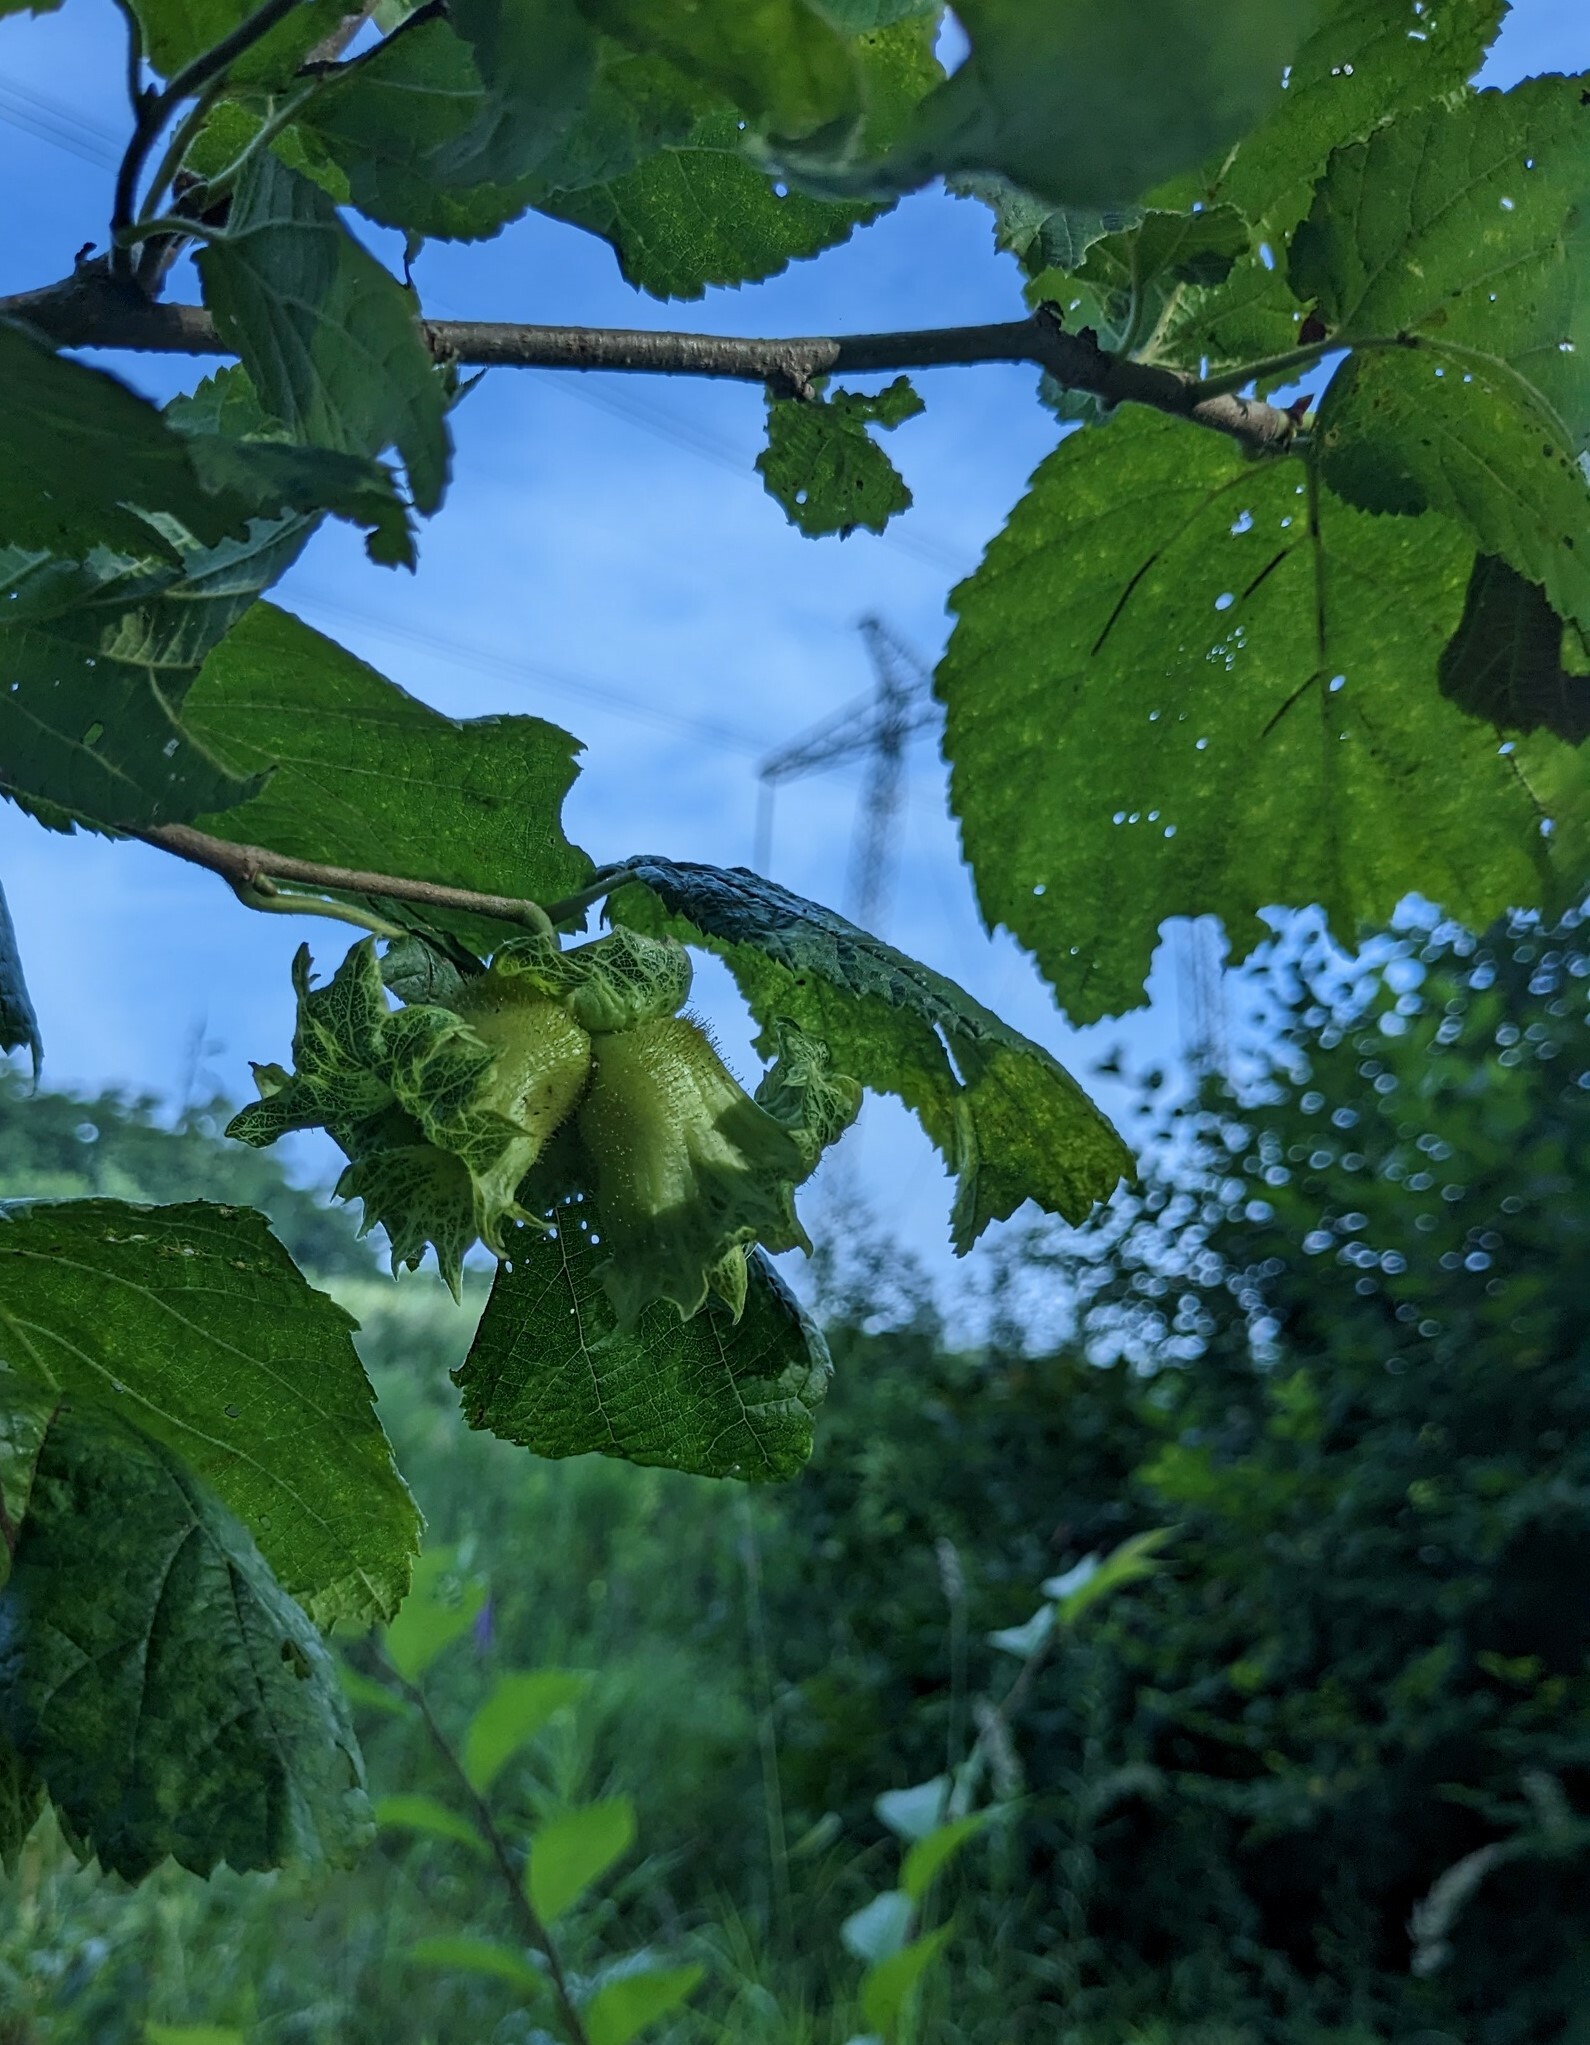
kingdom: Plantae
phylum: Tracheophyta
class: Magnoliopsida
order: Fagales
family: Betulaceae
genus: Corylus
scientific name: Corylus heterophylla
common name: Siberian hazelnut
